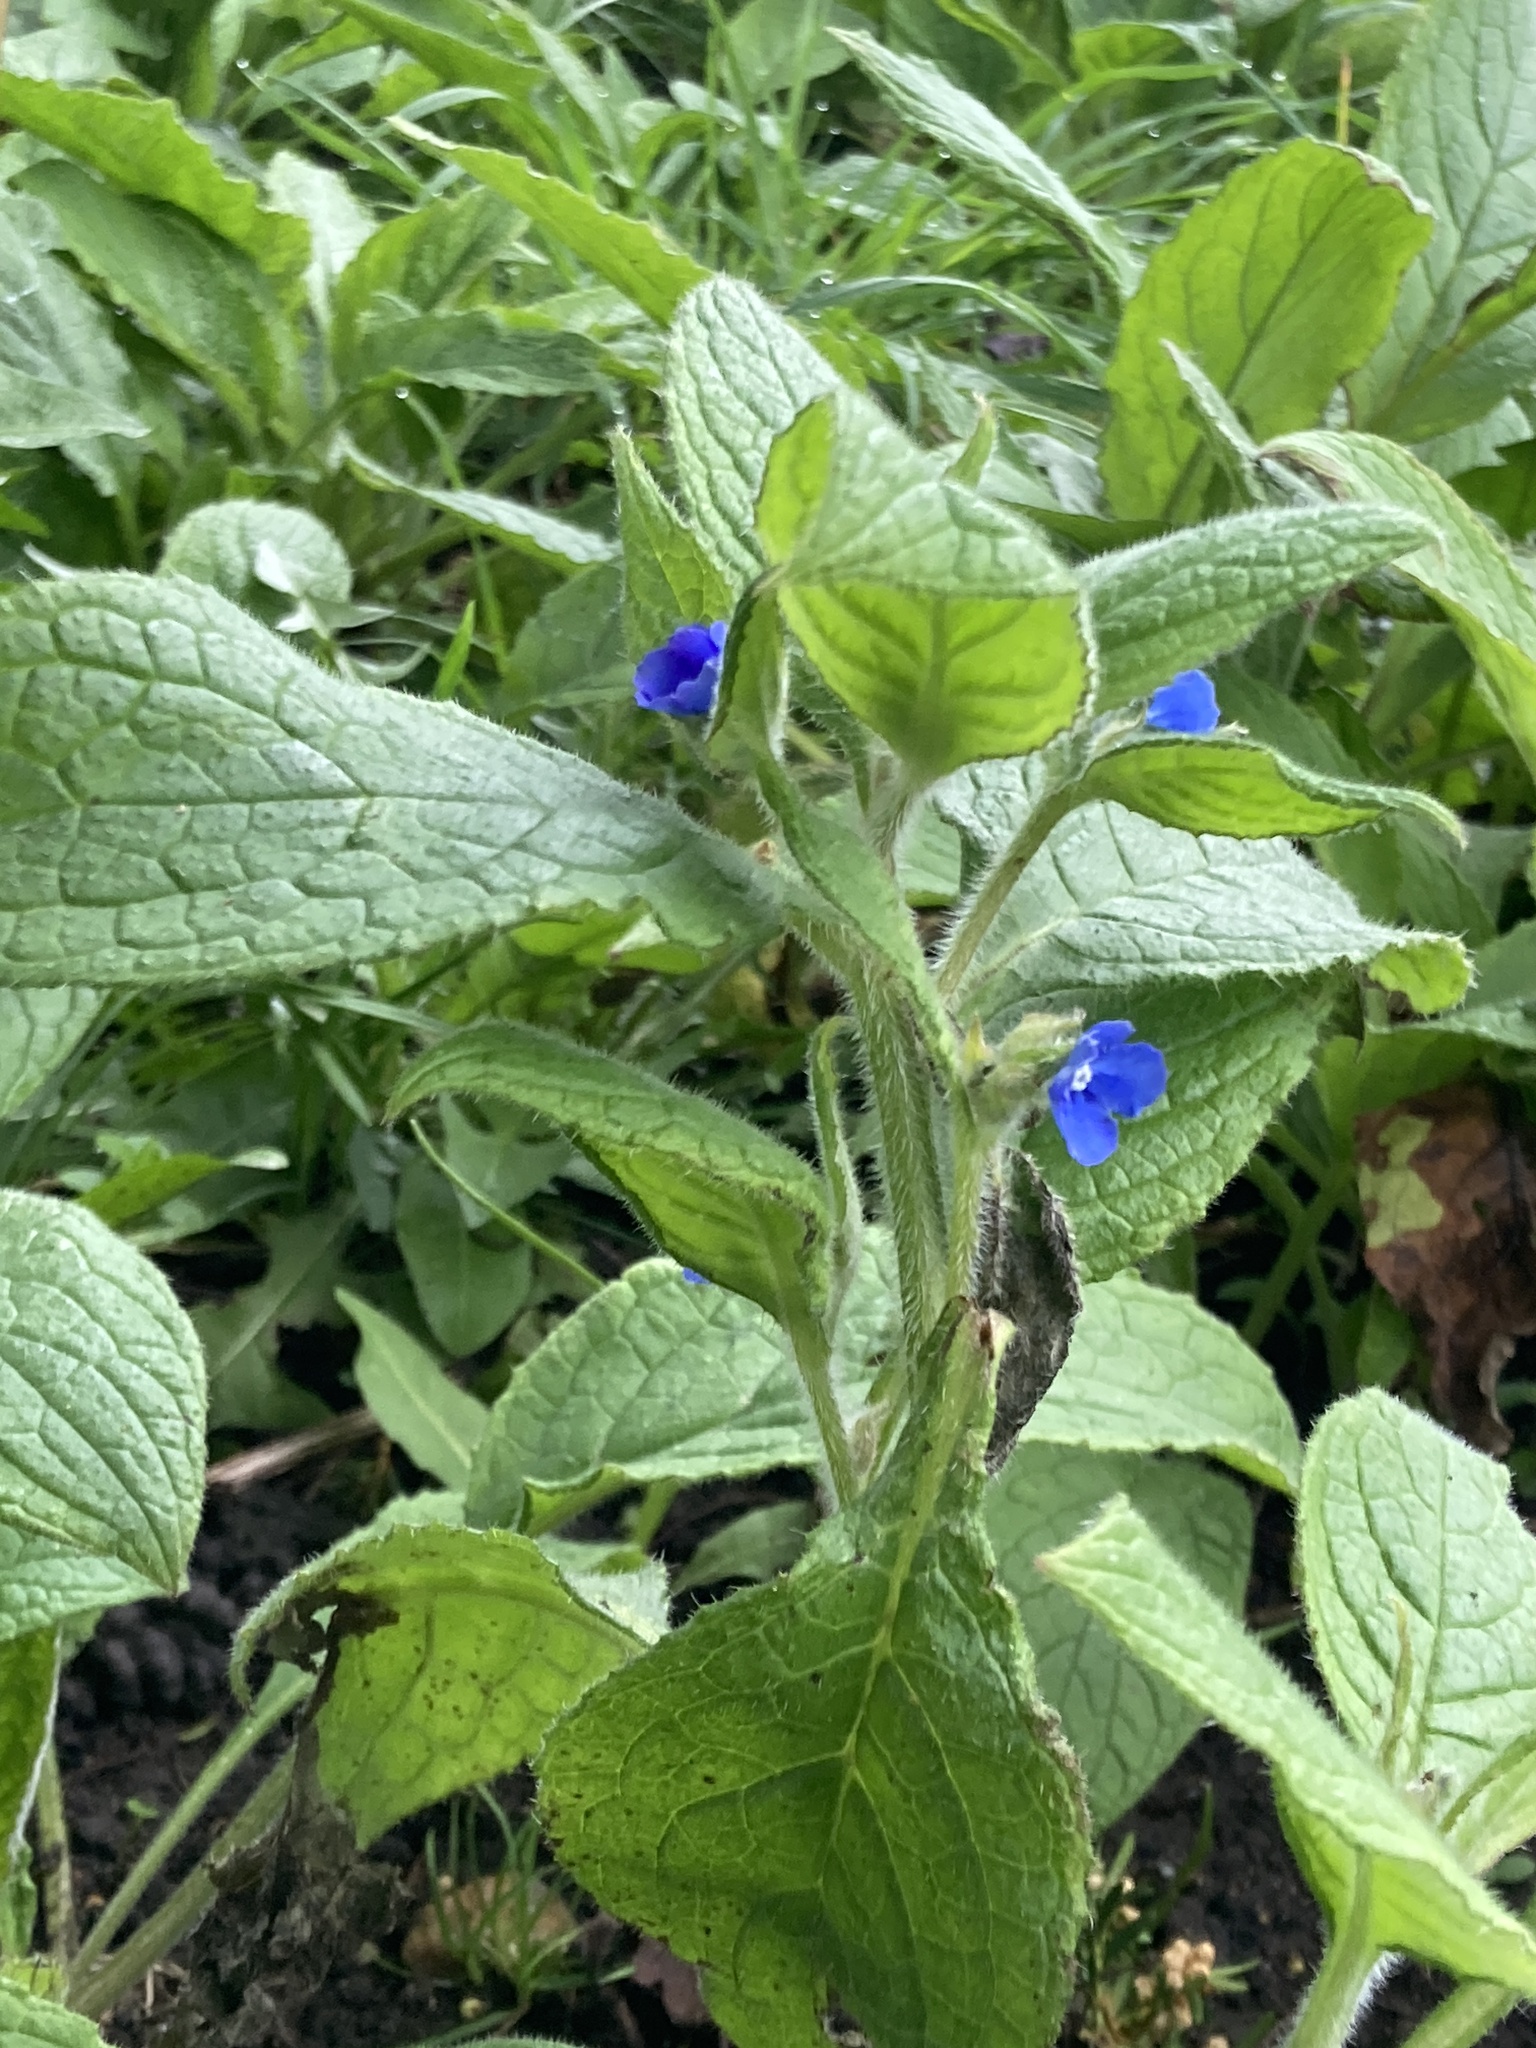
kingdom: Plantae
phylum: Tracheophyta
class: Magnoliopsida
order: Boraginales
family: Boraginaceae
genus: Pentaglottis
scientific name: Pentaglottis sempervirens
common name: Green alkanet
